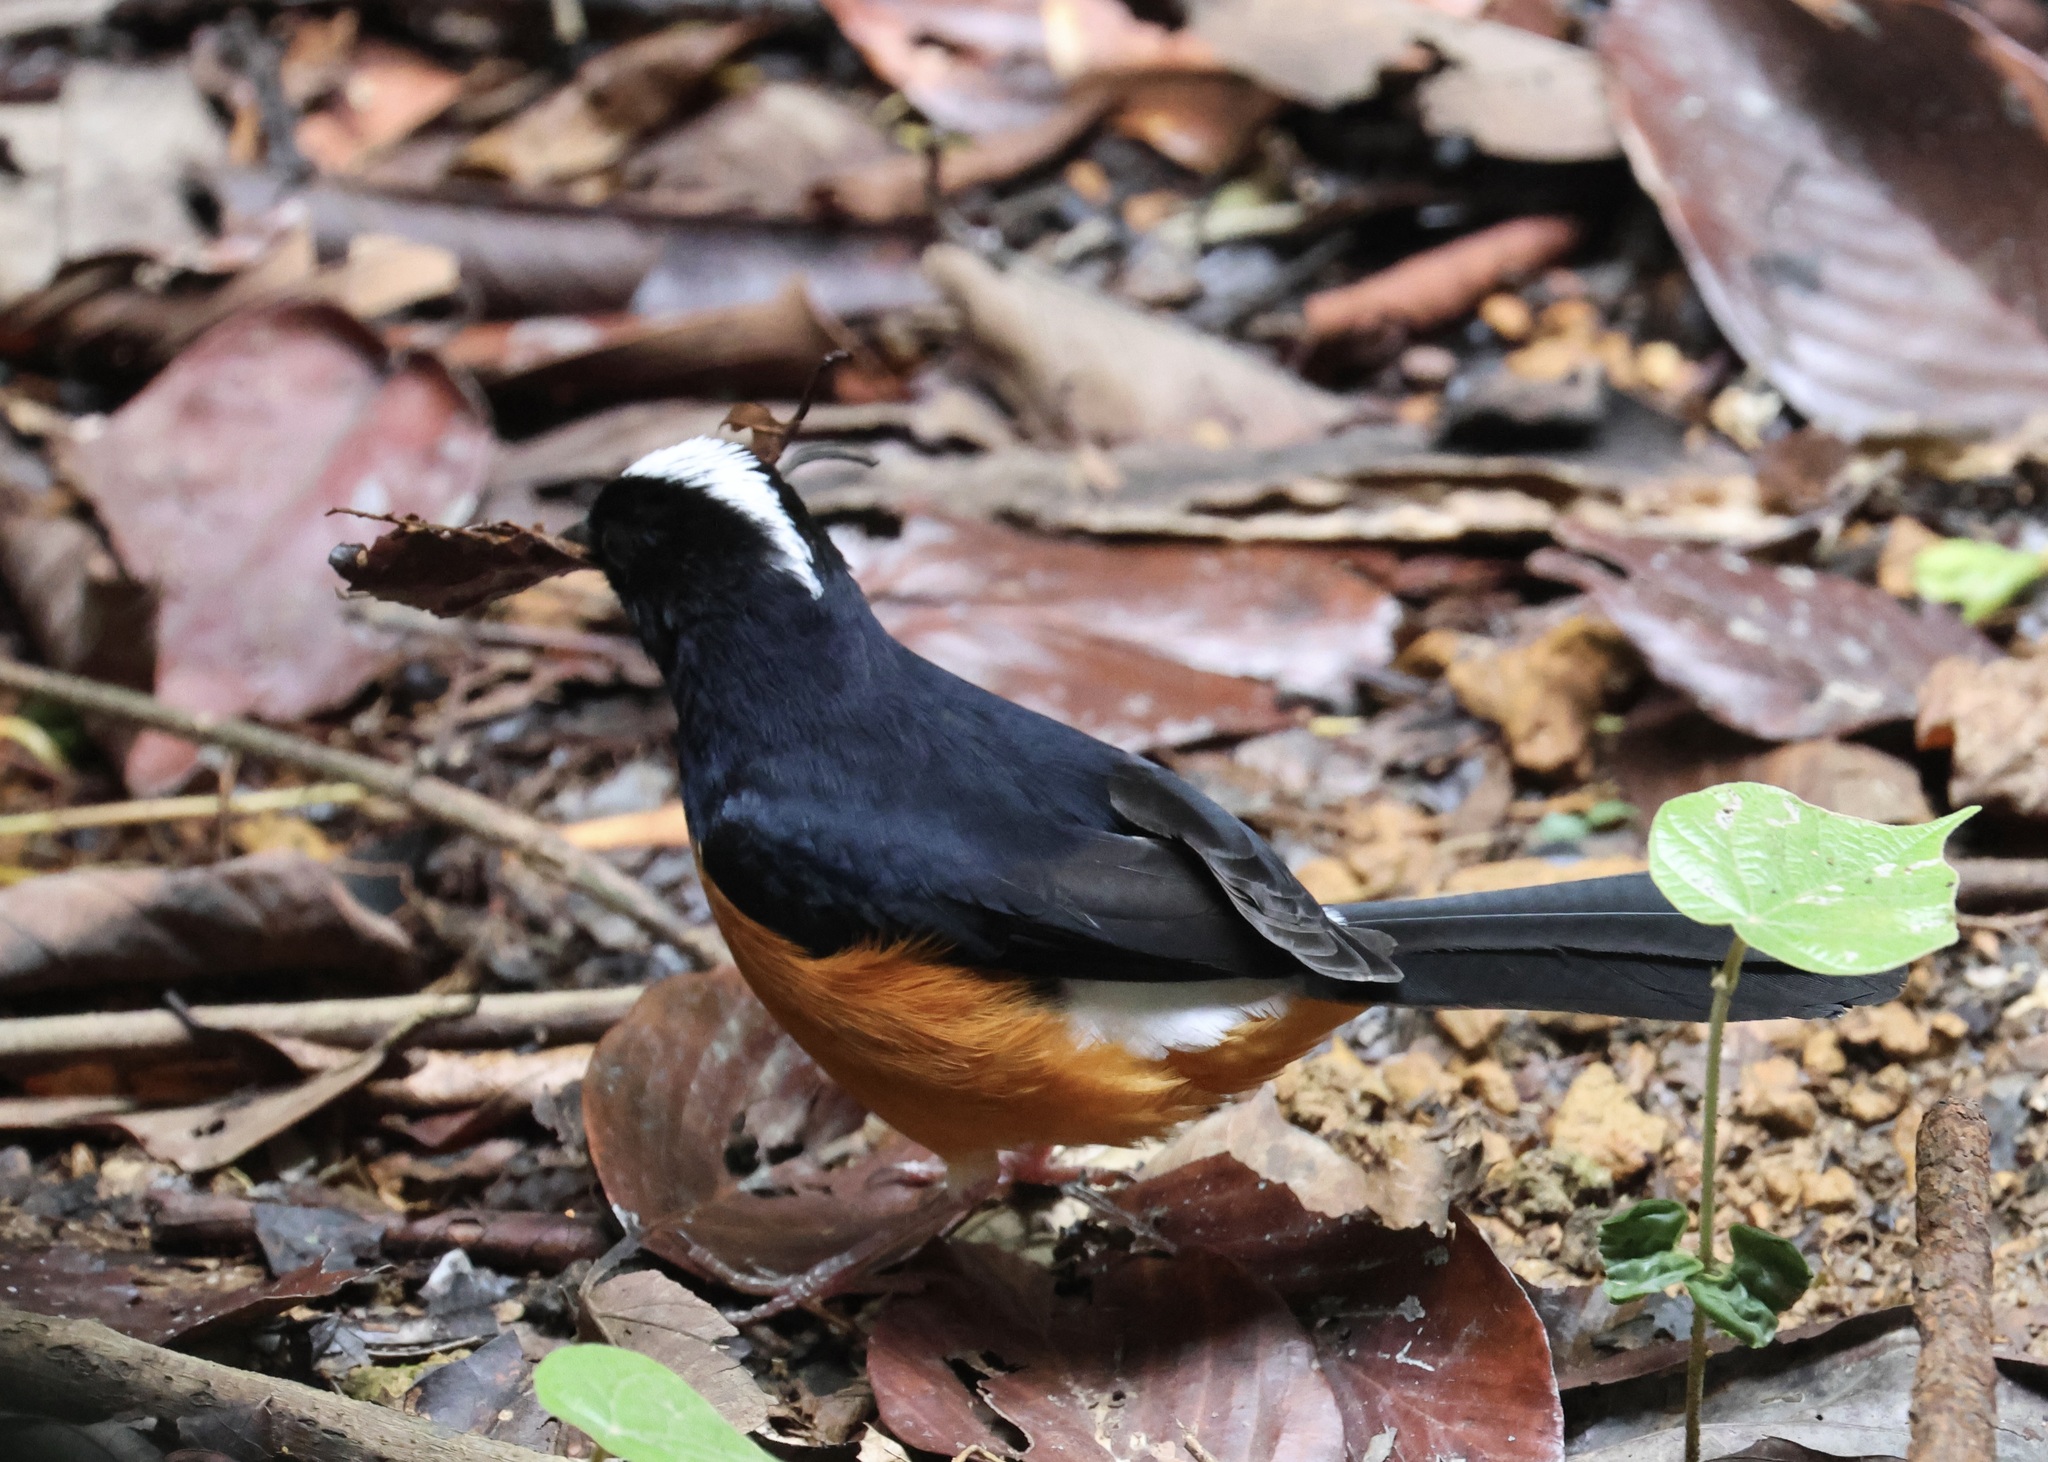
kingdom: Animalia
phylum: Chordata
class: Aves
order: Passeriformes
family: Muscicapidae
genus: Copsychus
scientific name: Copsychus stricklandii
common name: White-crowned shama
